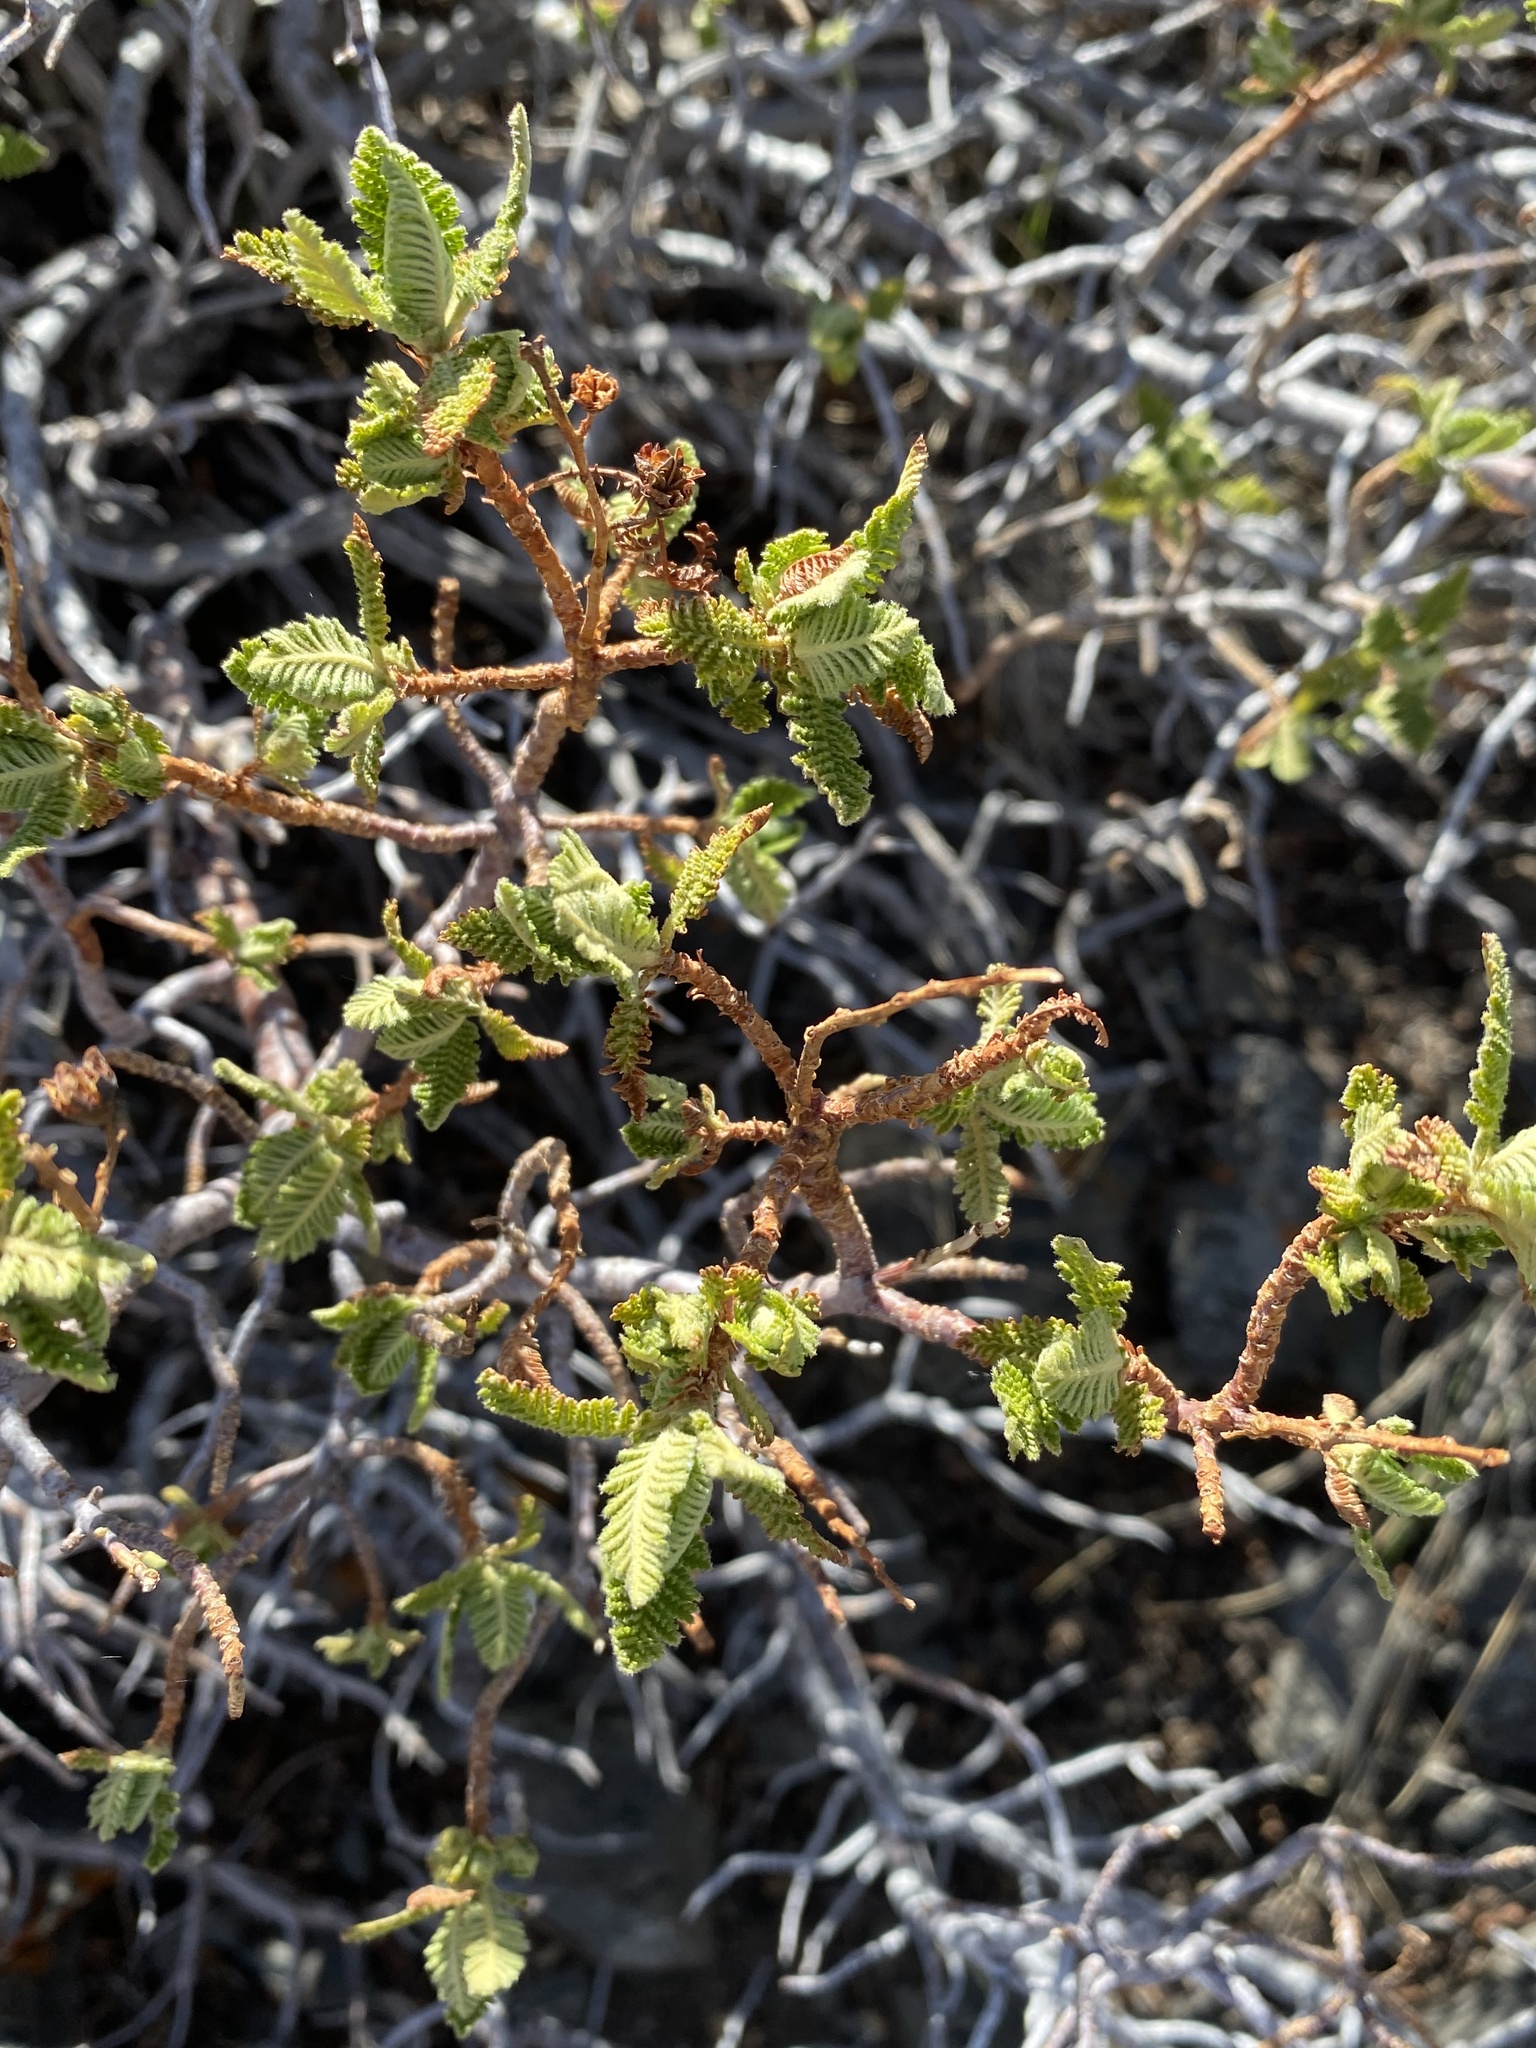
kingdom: Plantae
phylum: Tracheophyta
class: Magnoliopsida
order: Rosales
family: Rosaceae
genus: Chamaebatiaria
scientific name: Chamaebatiaria millefolium
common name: Fernbush
